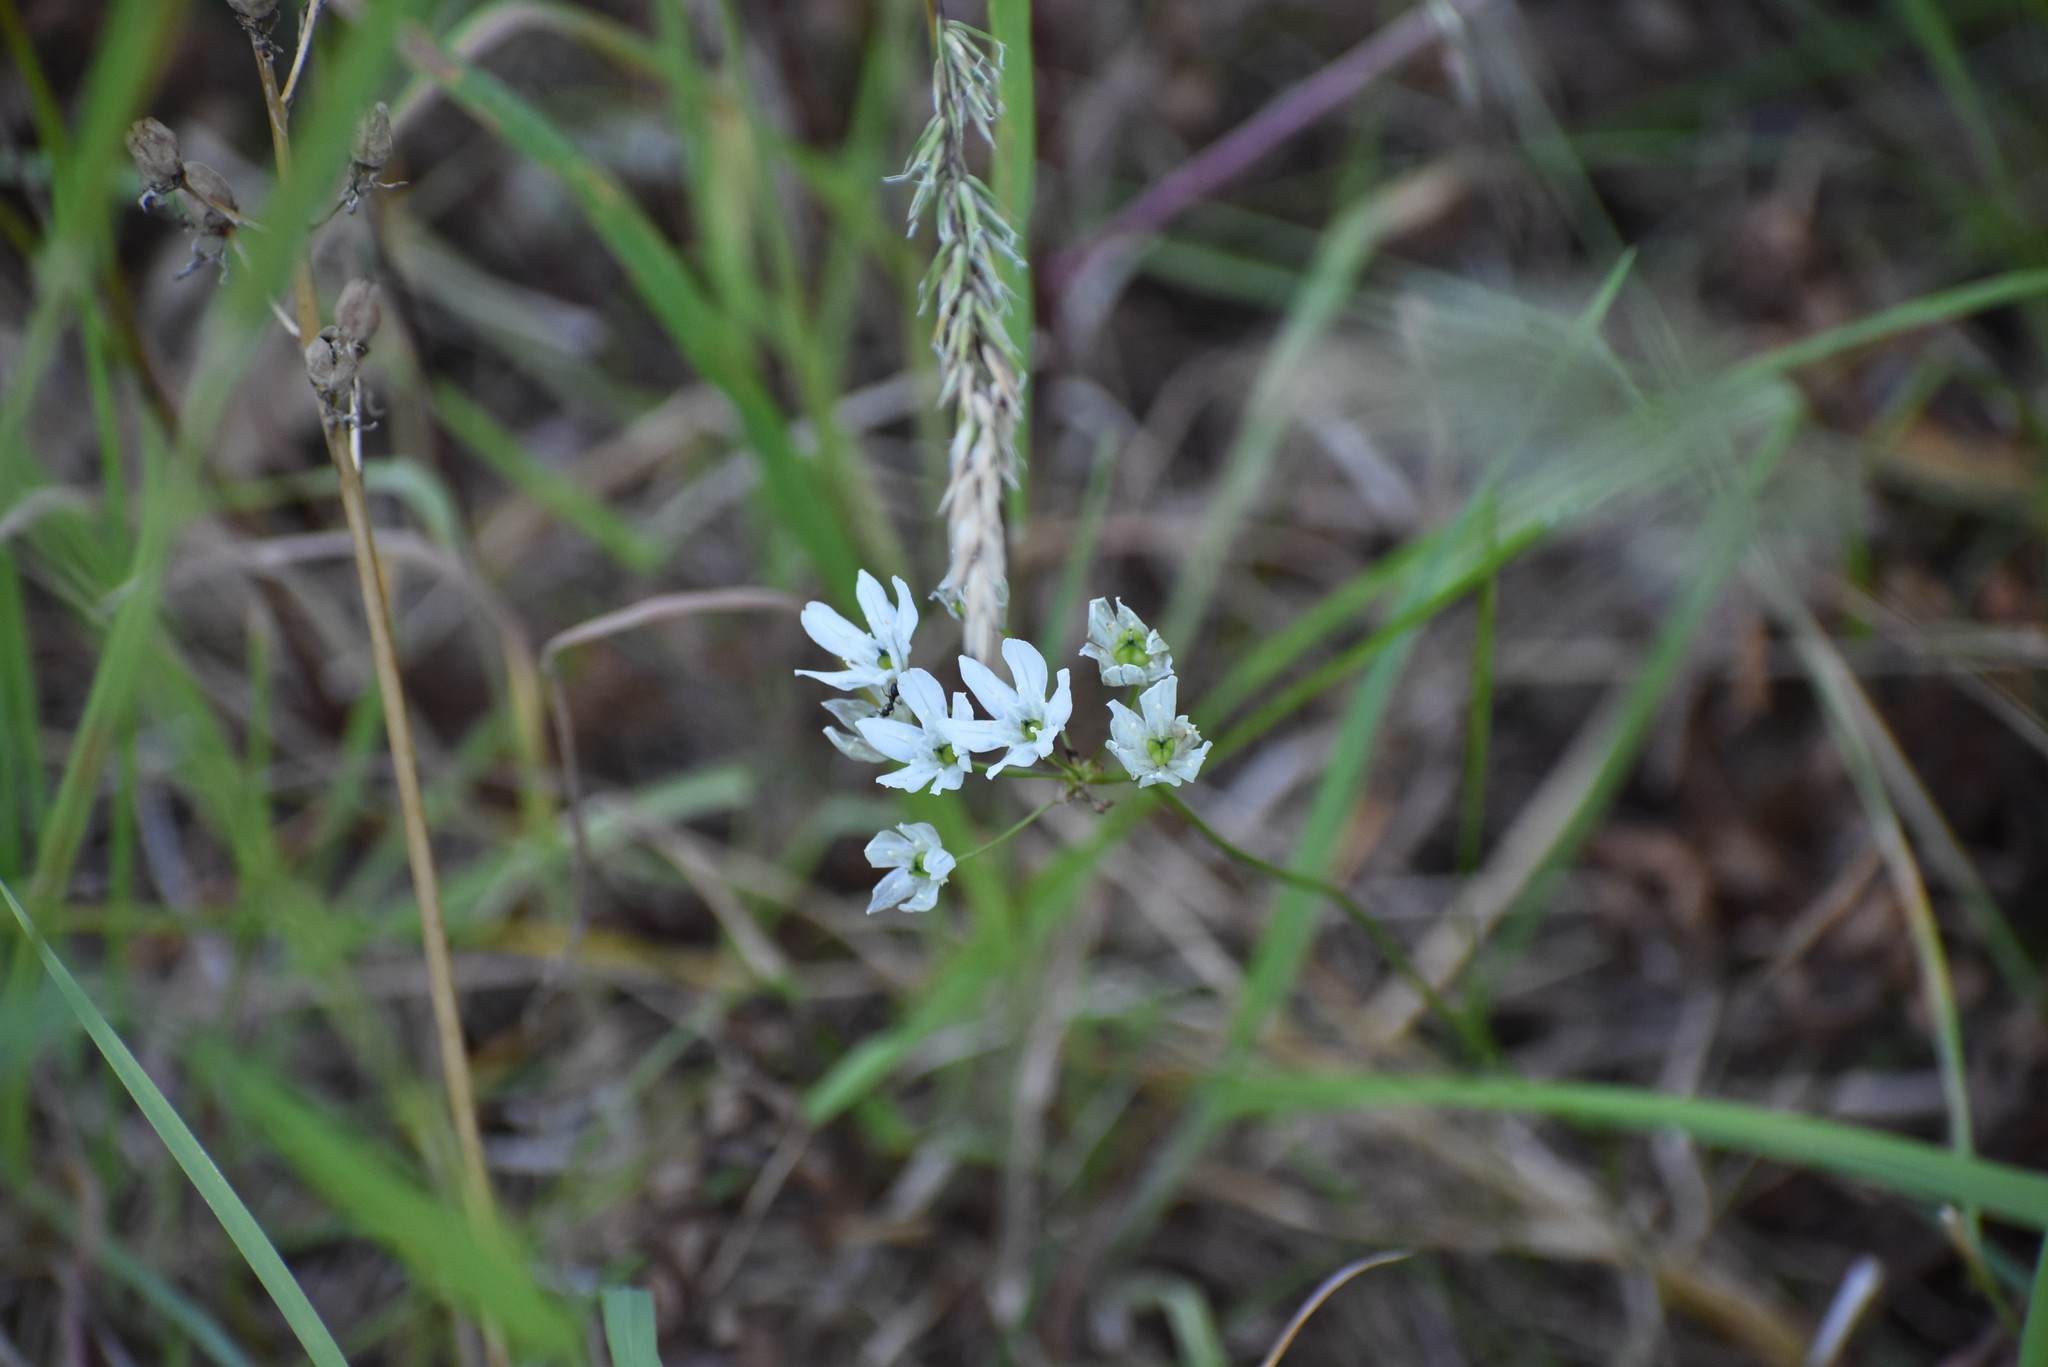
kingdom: Plantae
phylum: Tracheophyta
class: Liliopsida
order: Asparagales
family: Asparagaceae
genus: Triteleia
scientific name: Triteleia hyacinthina
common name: White brodiaea
